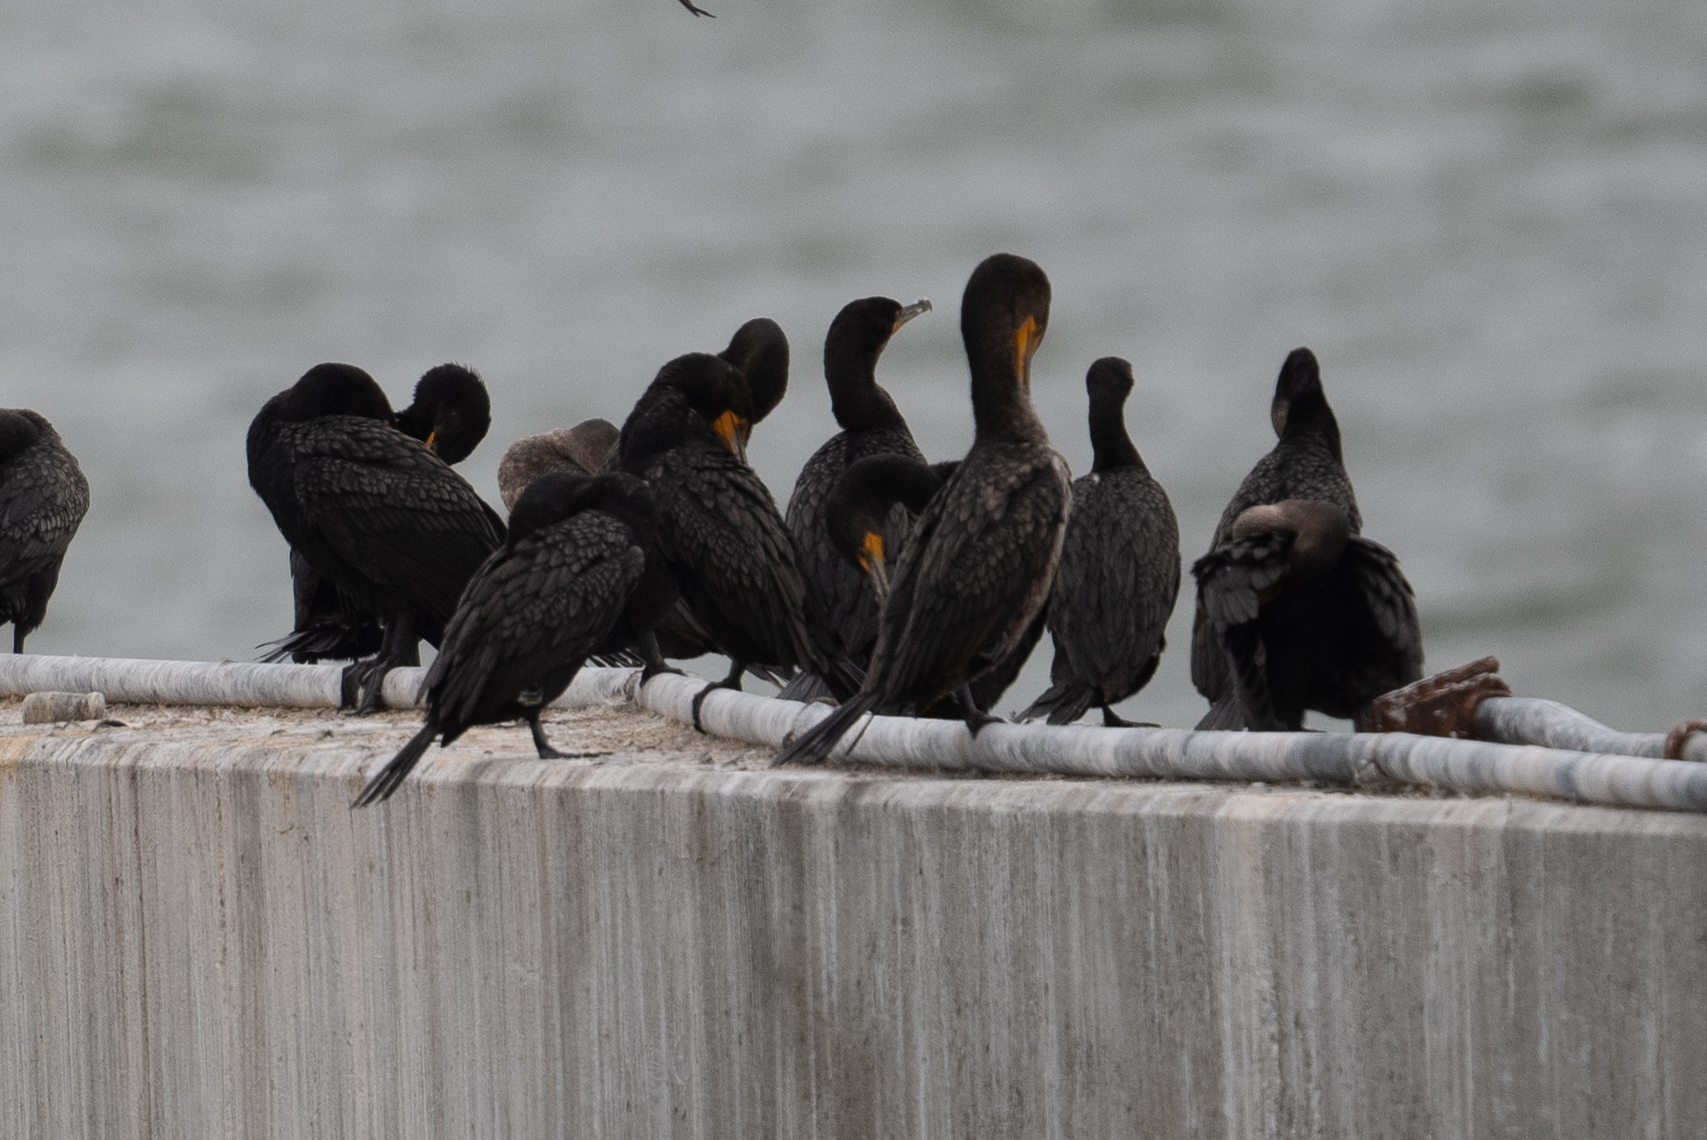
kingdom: Animalia
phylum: Chordata
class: Aves
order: Suliformes
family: Phalacrocoracidae
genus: Phalacrocorax
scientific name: Phalacrocorax auritus
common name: Double-crested cormorant
